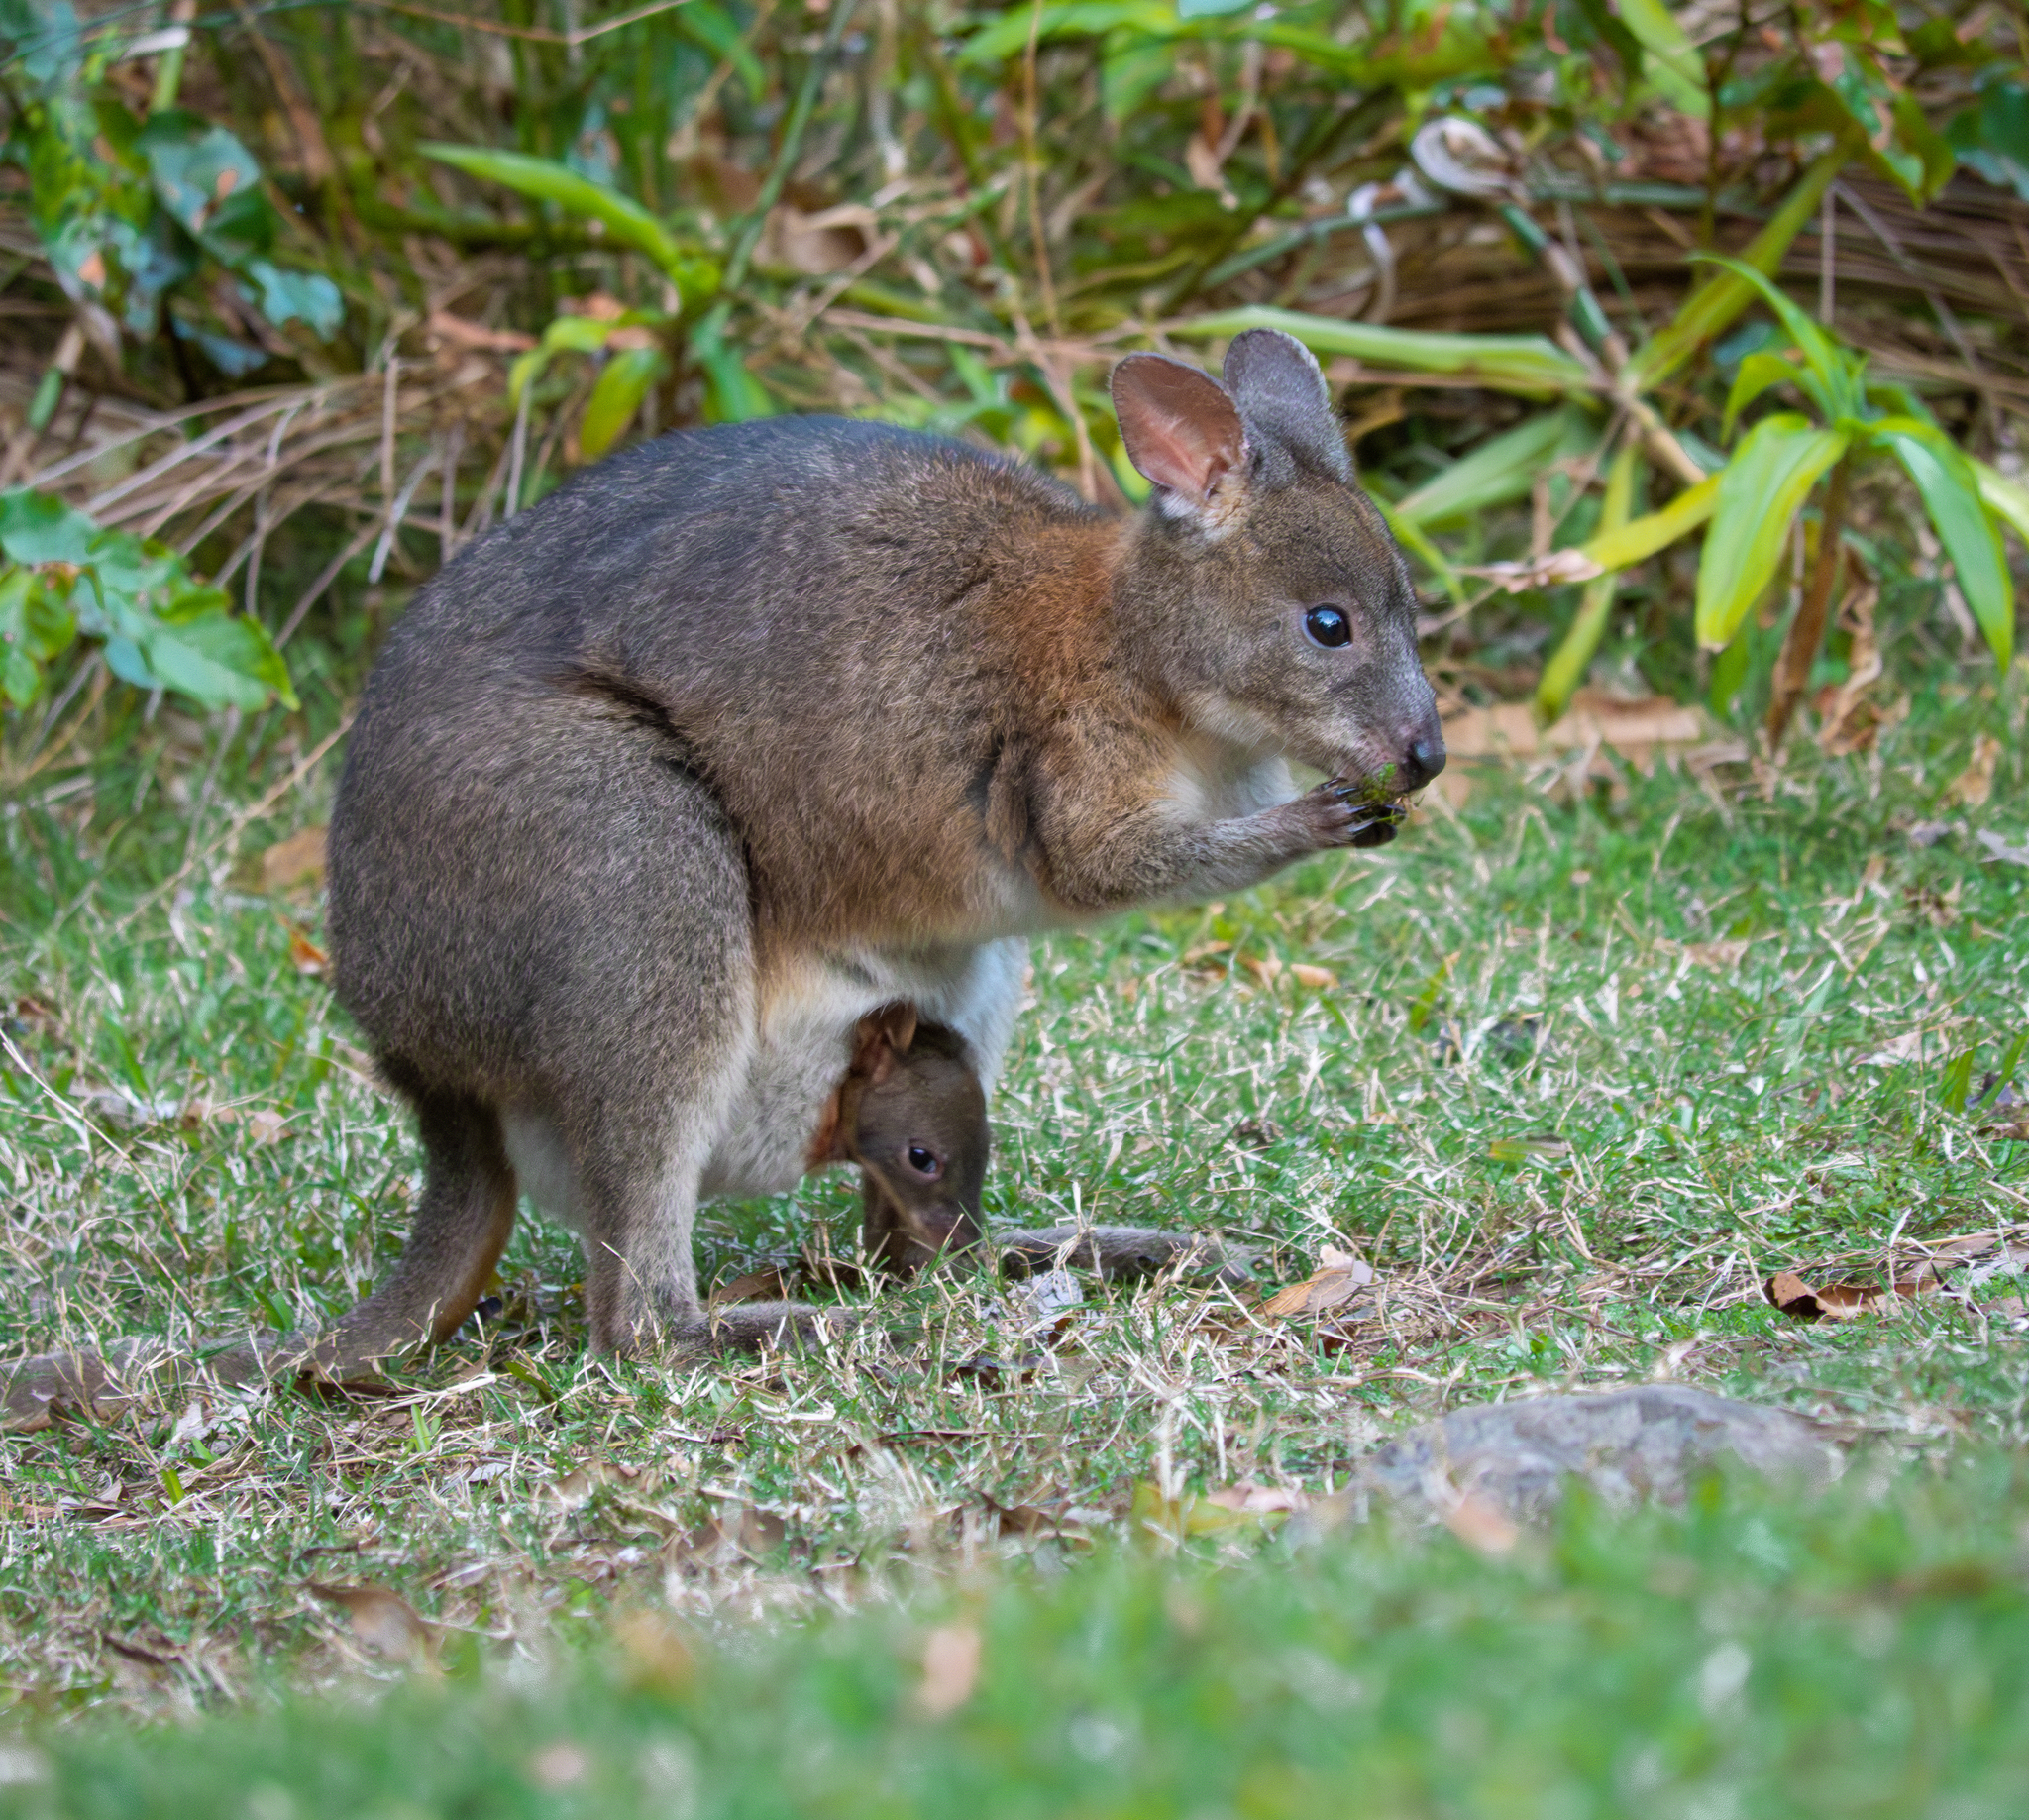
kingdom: Animalia
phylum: Chordata
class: Mammalia
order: Diprotodontia
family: Macropodidae
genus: Thylogale
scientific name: Thylogale thetis
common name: Red-necked pademelon
